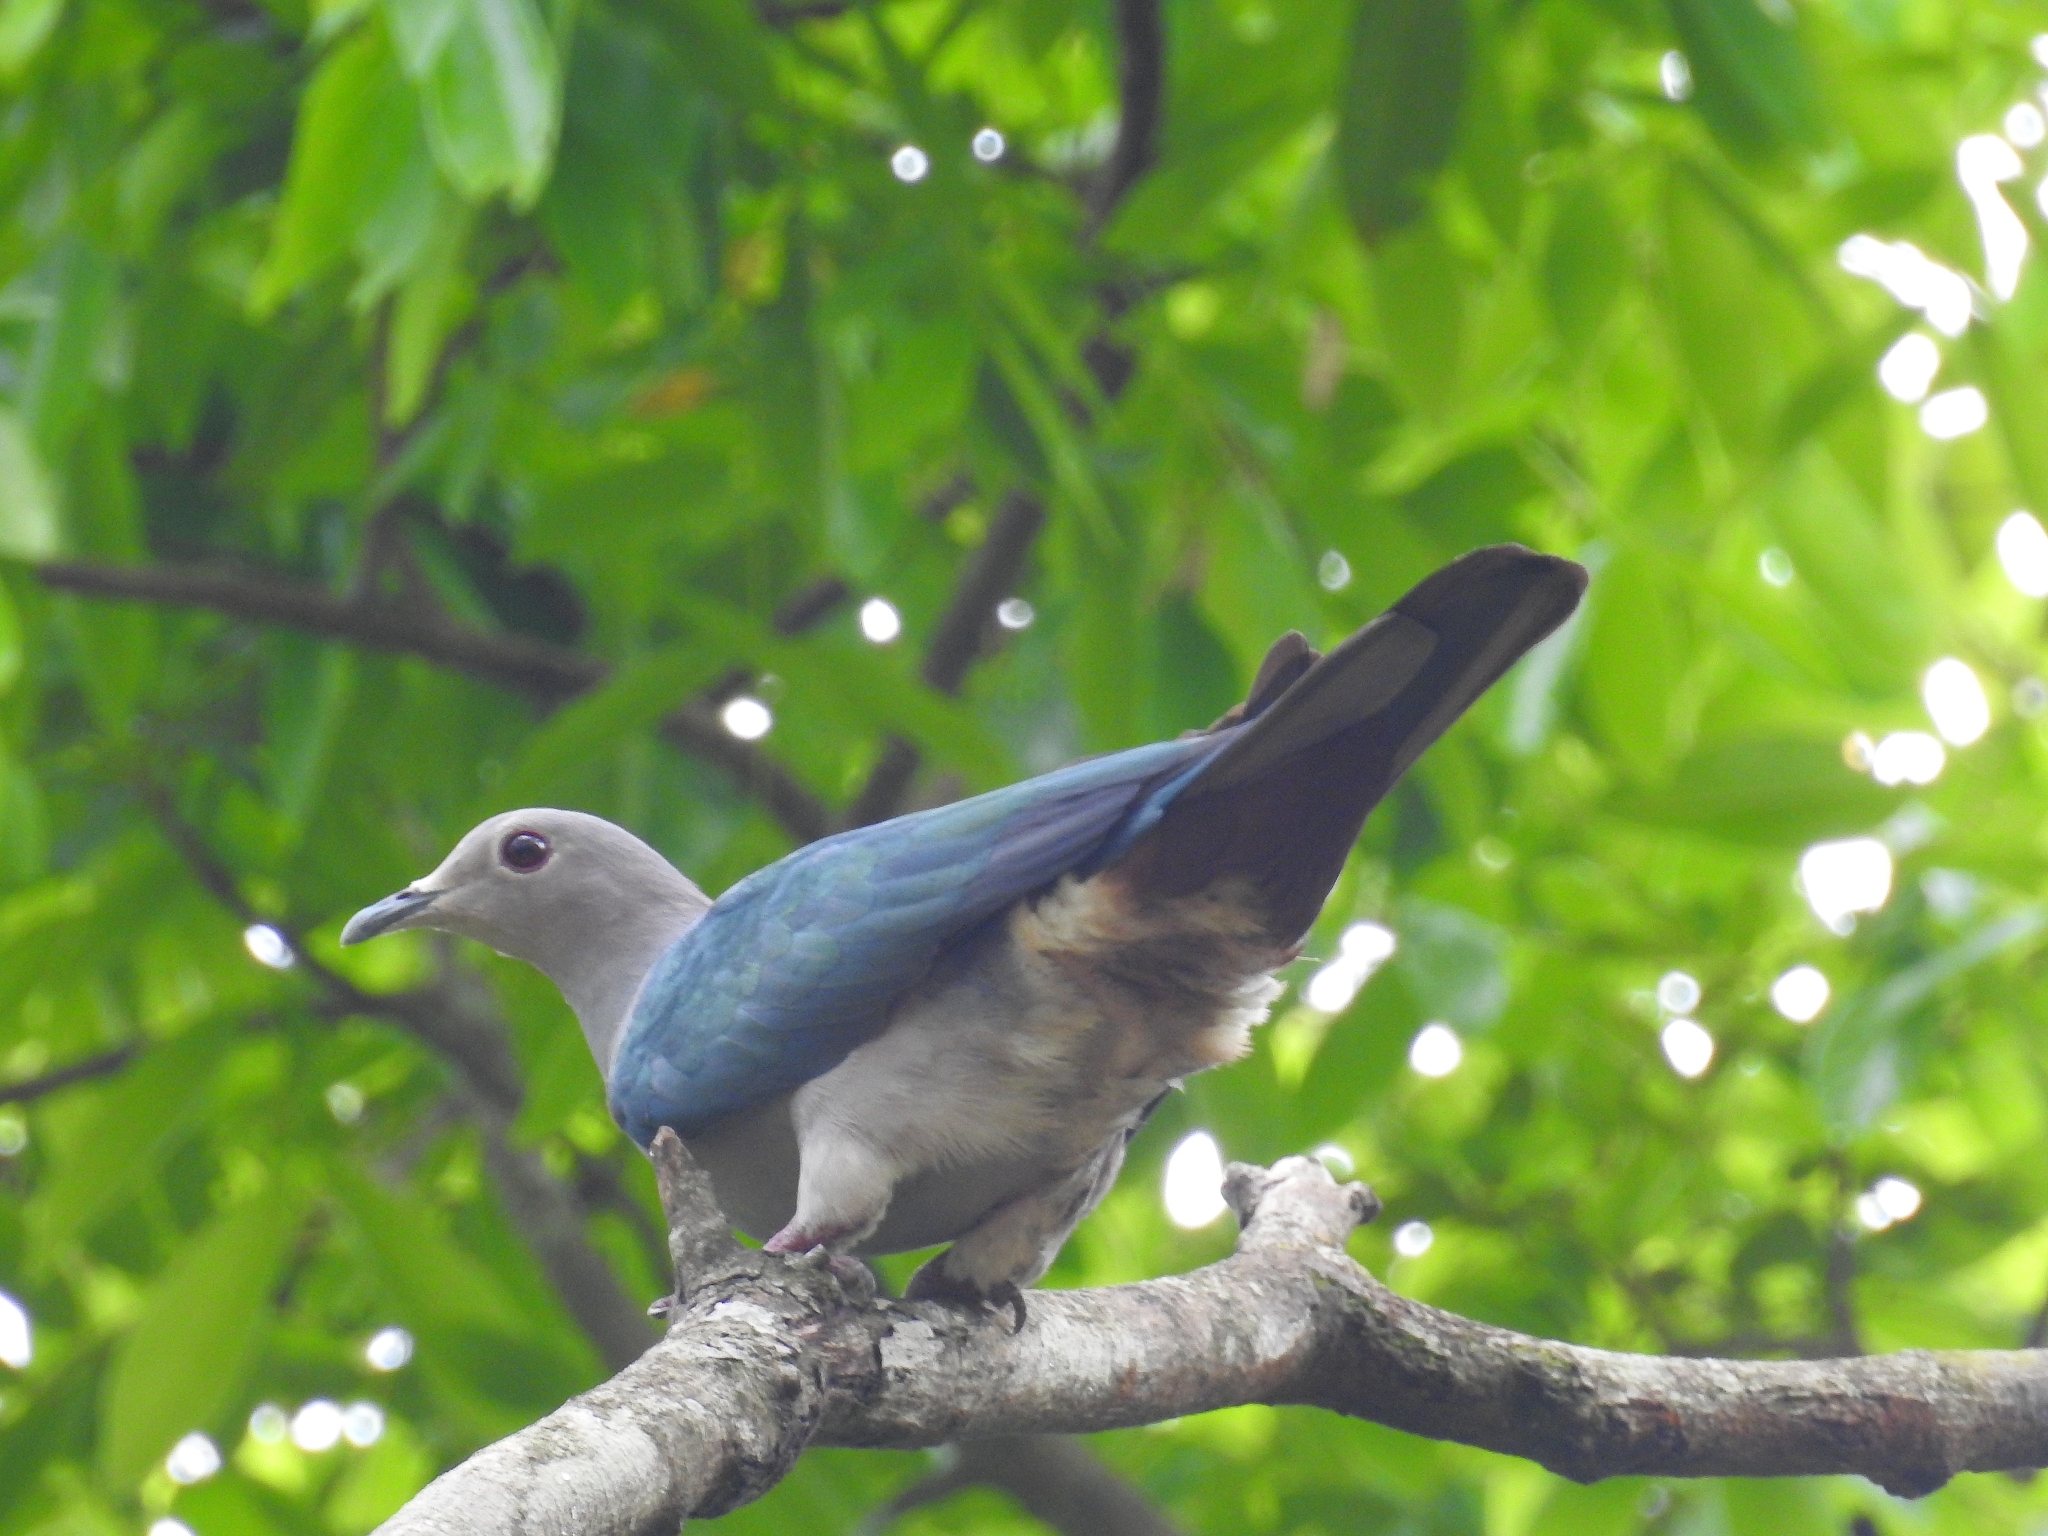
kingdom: Animalia
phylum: Chordata
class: Aves
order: Columbiformes
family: Columbidae
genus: Ducula
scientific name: Ducula aenea
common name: Green imperial pigeon
